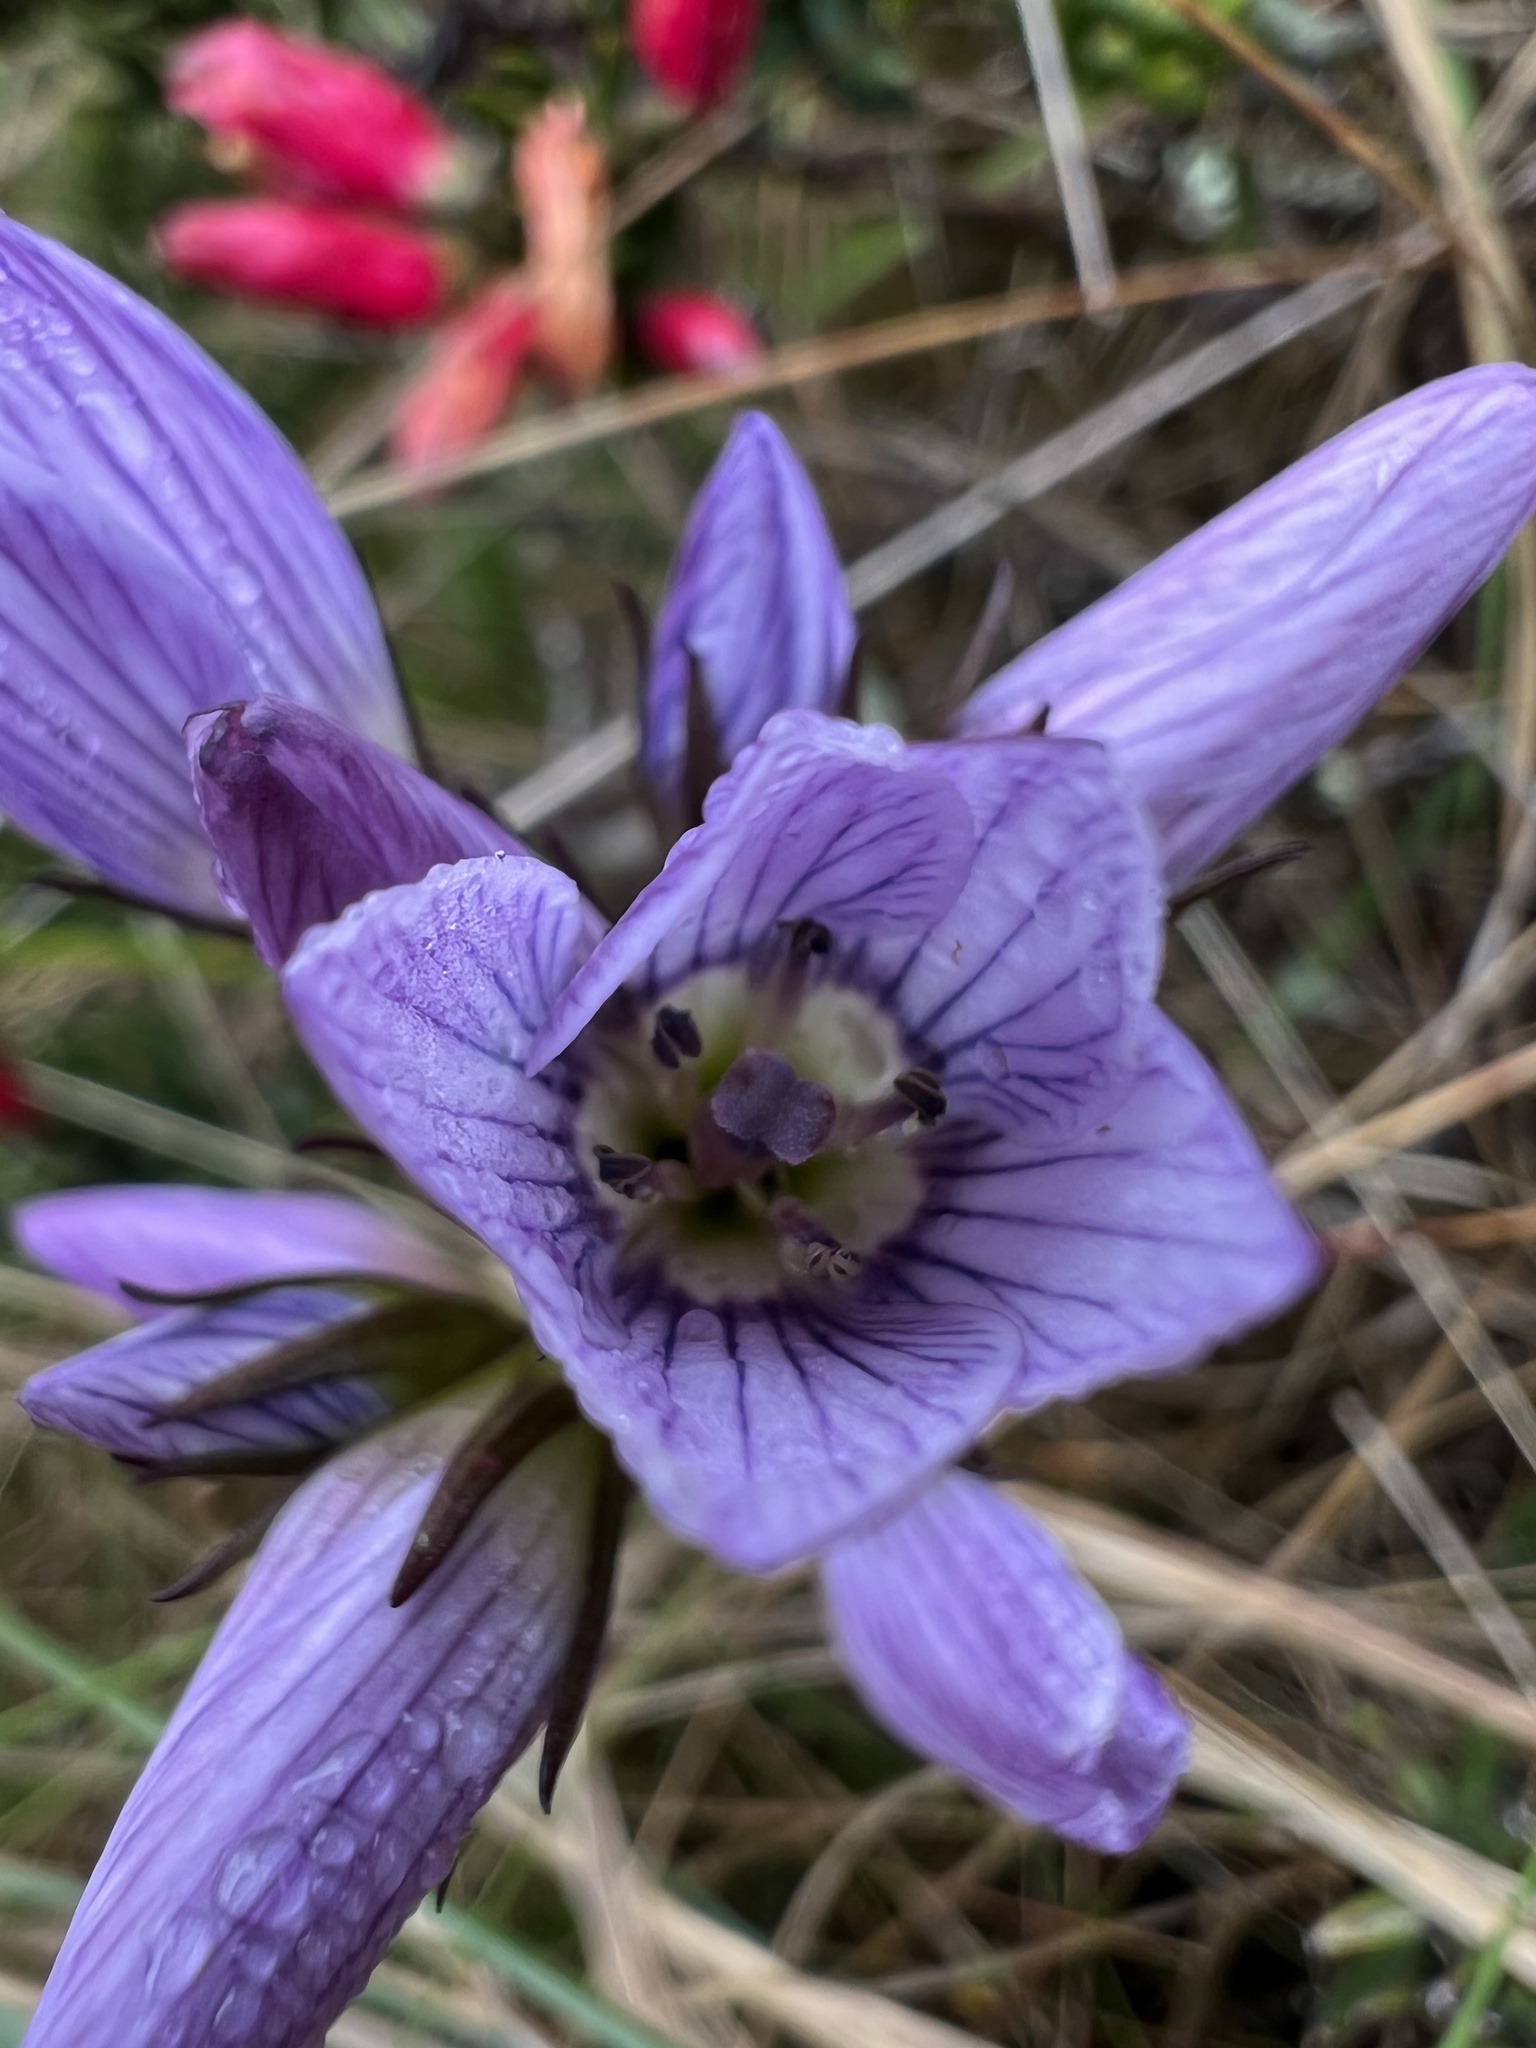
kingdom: Plantae
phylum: Tracheophyta
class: Magnoliopsida
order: Gentianales
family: Gentianaceae
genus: Gentianella
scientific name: Gentianella corymbosa
